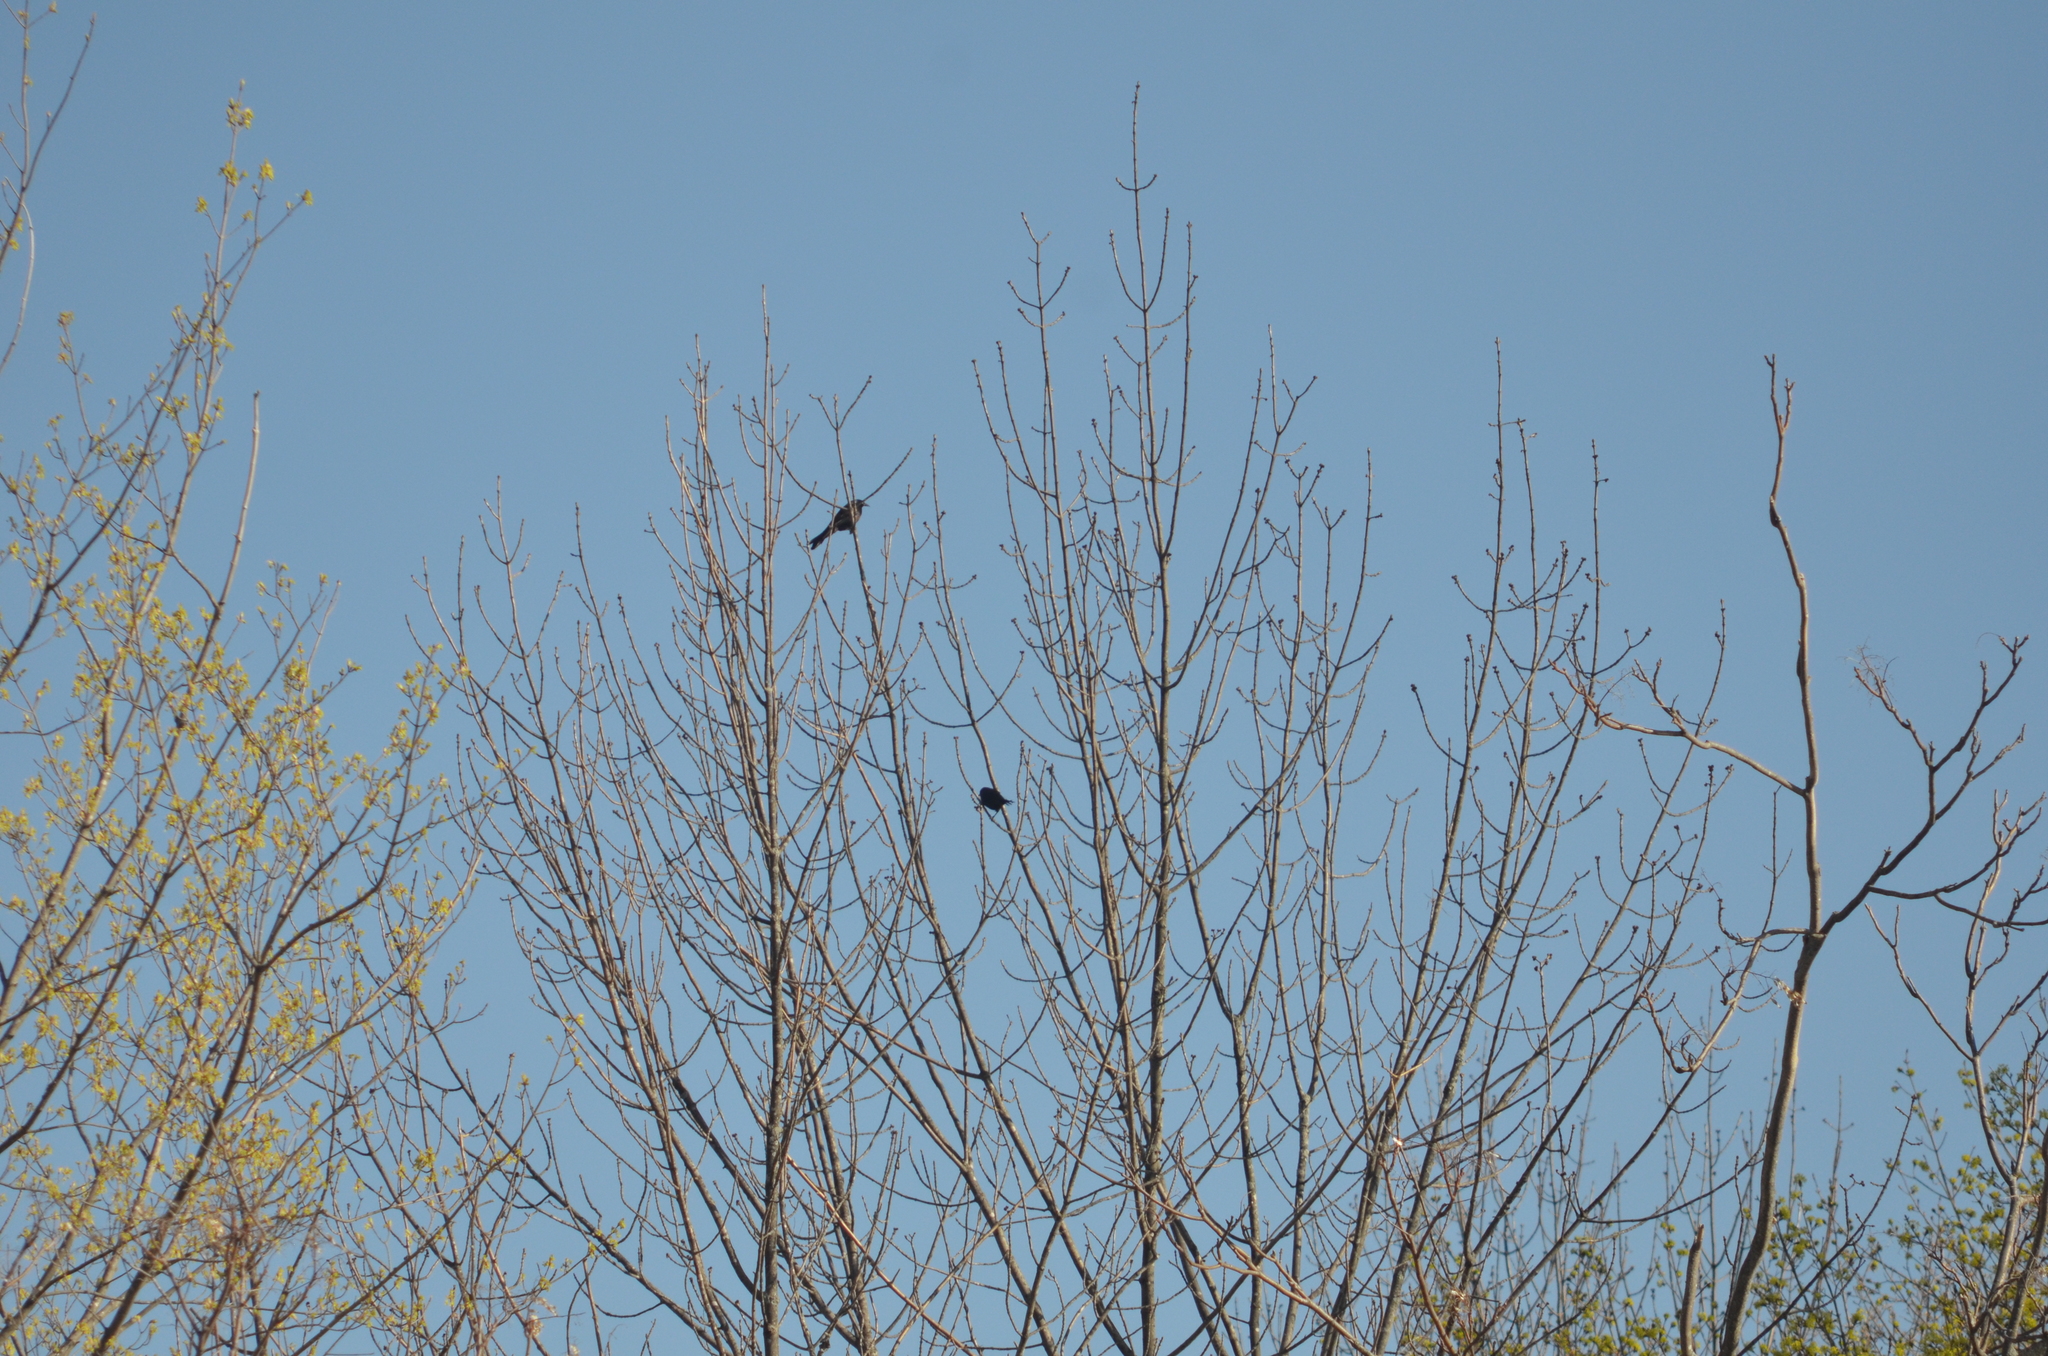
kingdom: Animalia
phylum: Chordata
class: Aves
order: Passeriformes
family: Icteridae
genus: Quiscalus
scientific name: Quiscalus quiscula
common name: Common grackle
